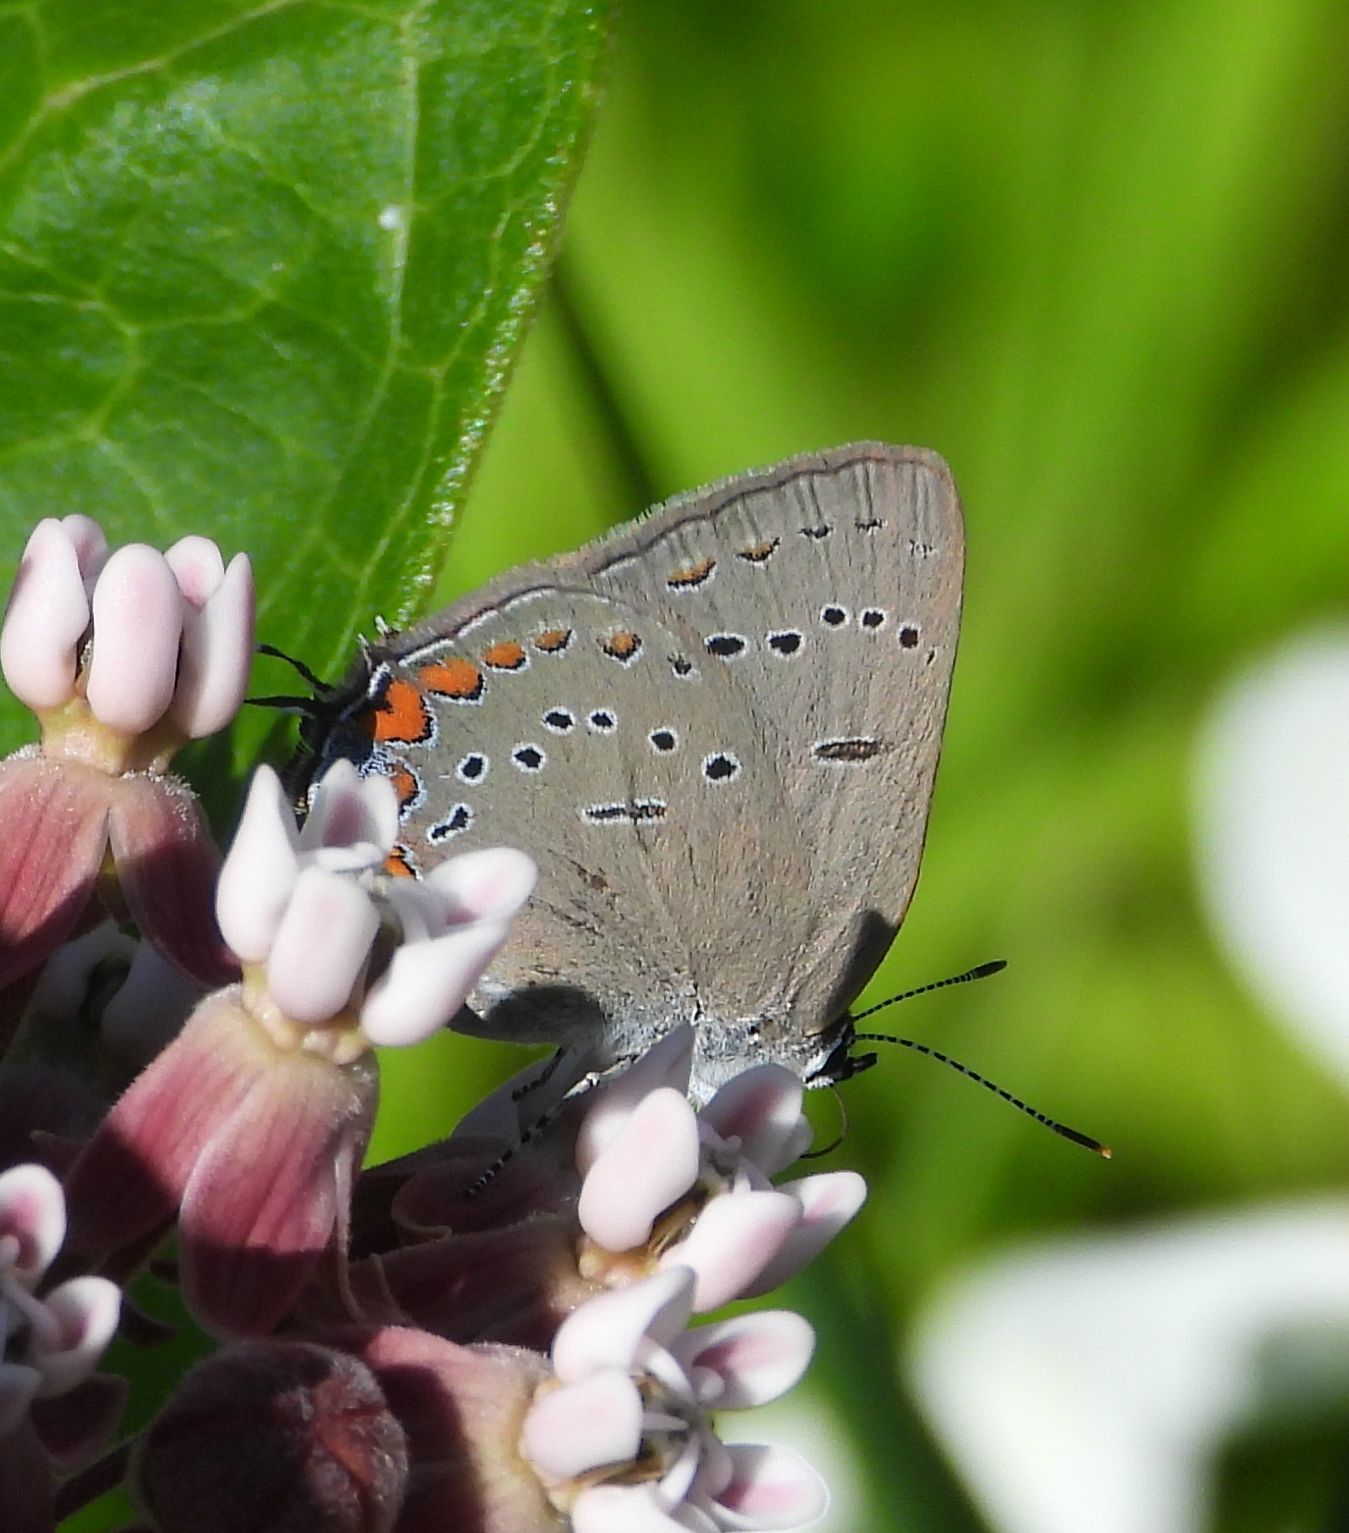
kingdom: Animalia
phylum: Arthropoda
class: Insecta
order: Lepidoptera
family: Lycaenidae
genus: Strymon
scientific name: Strymon acadica
